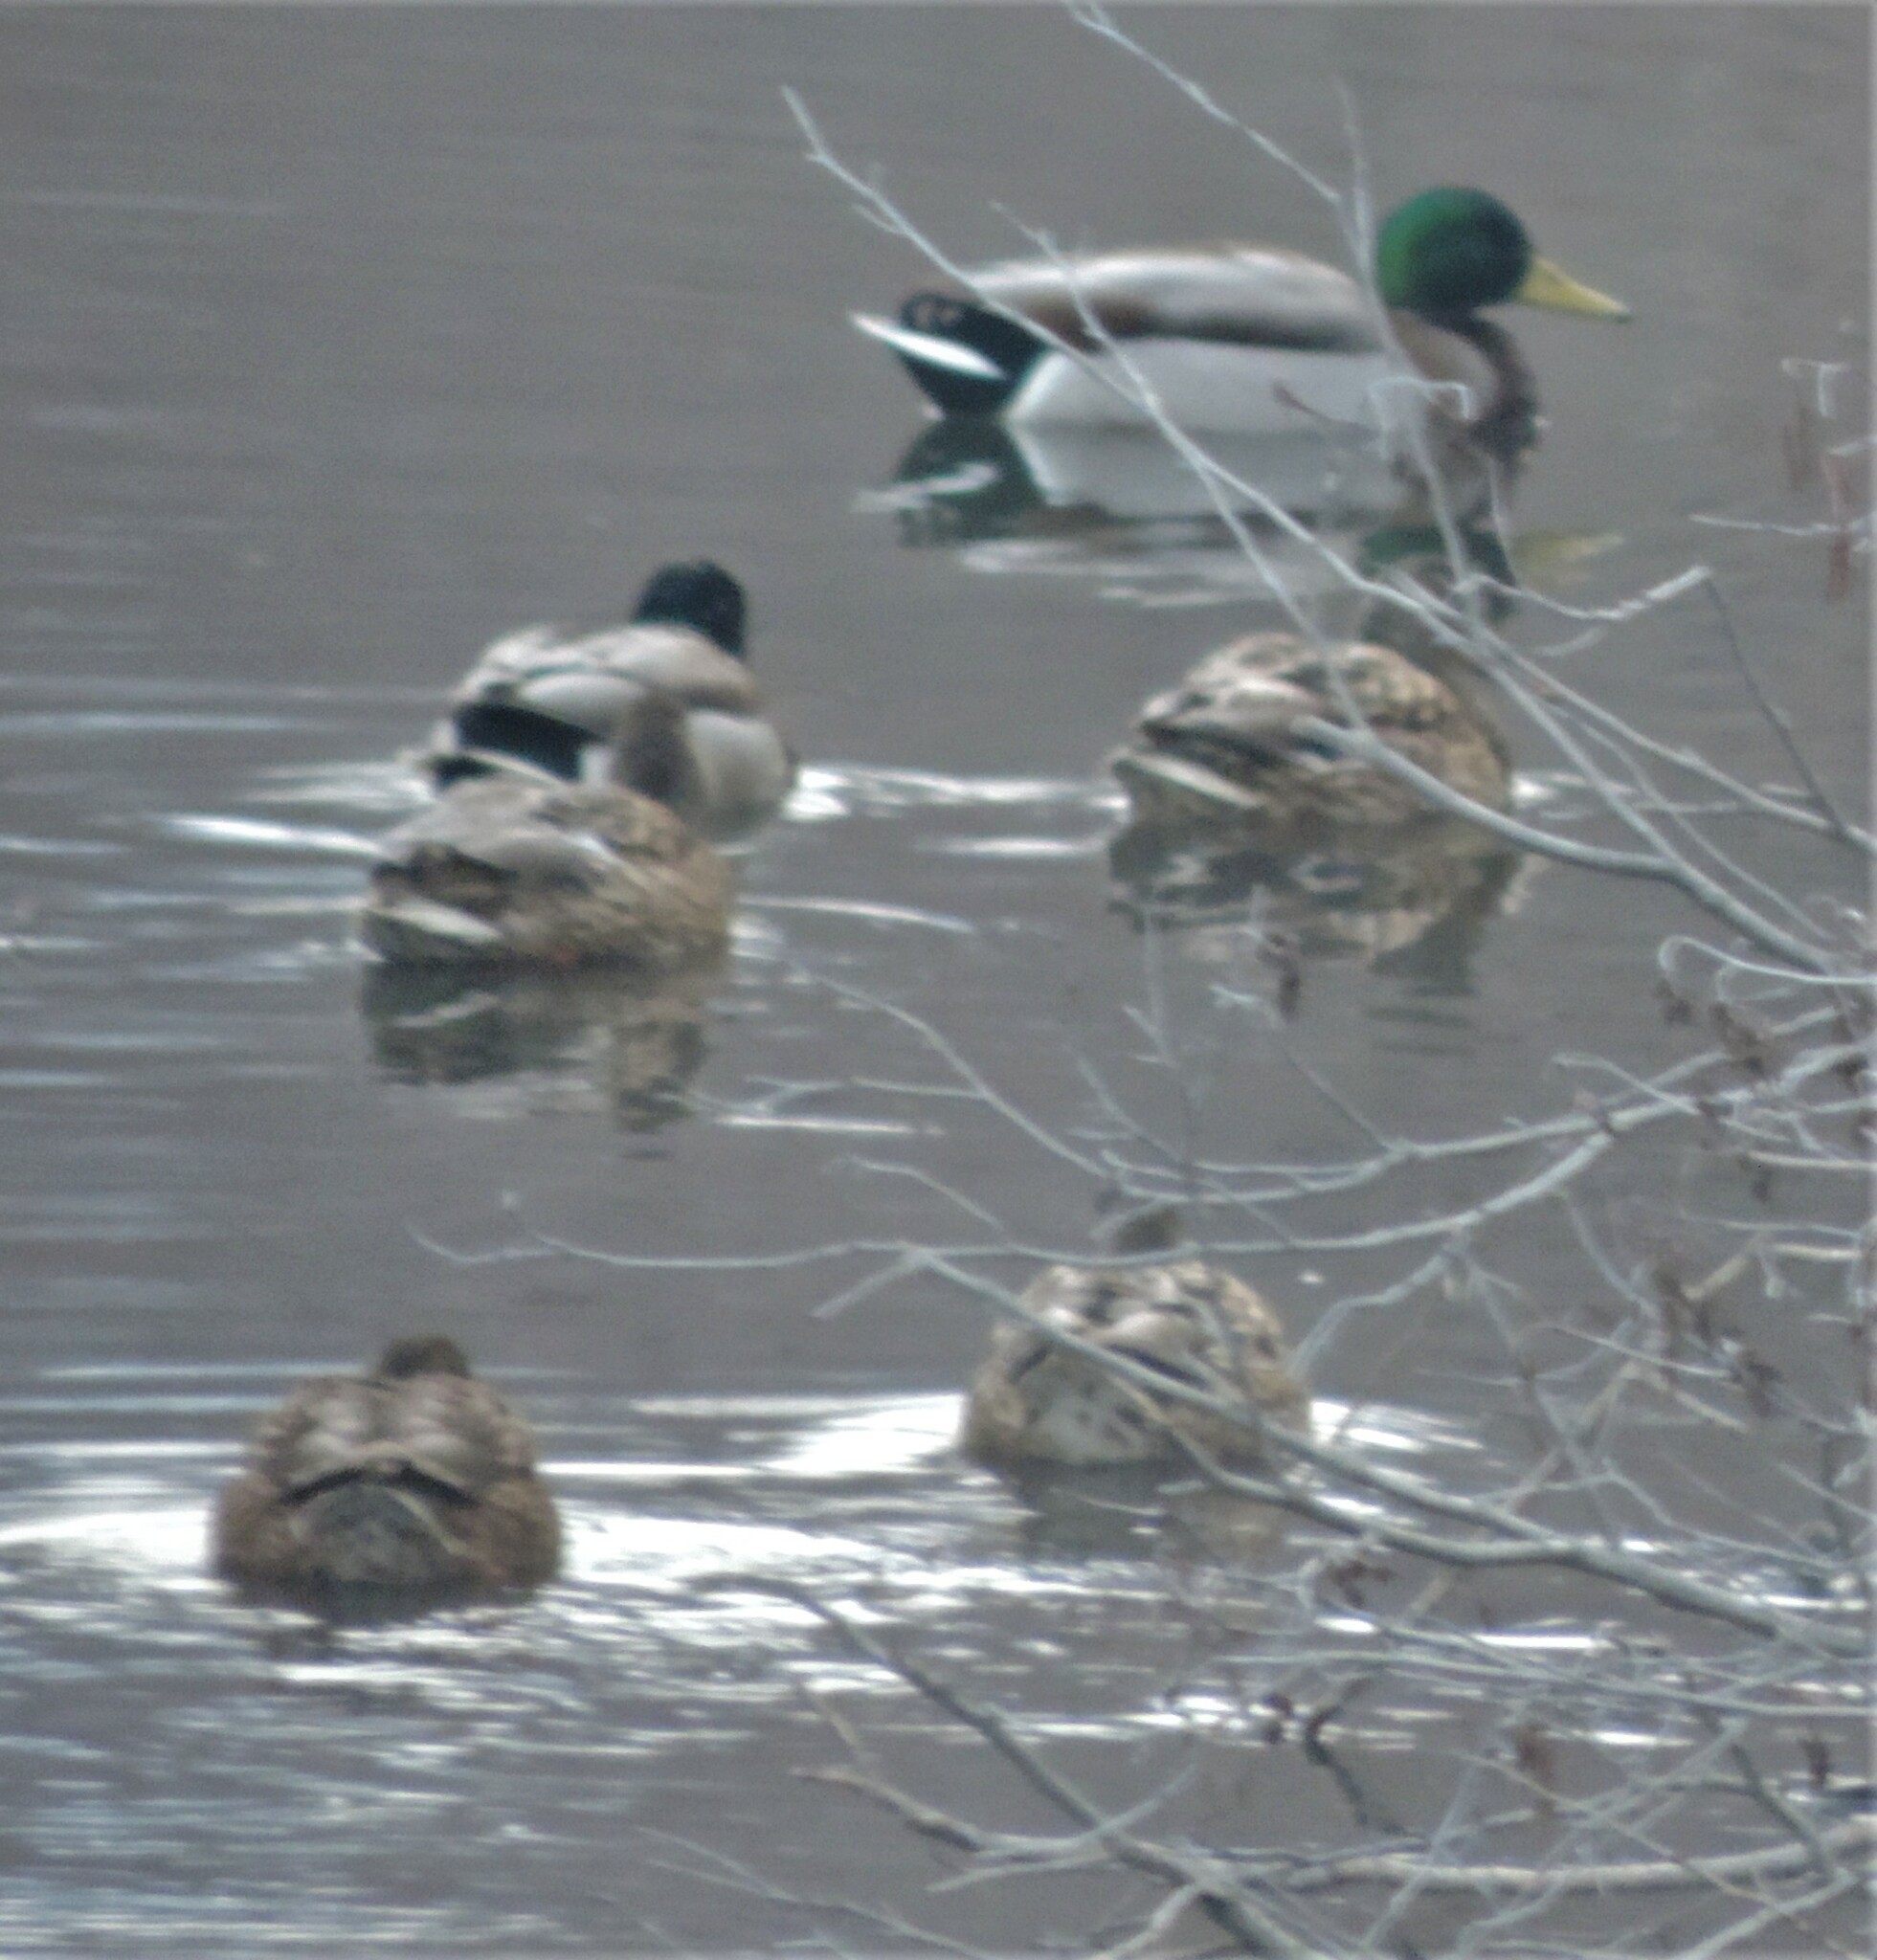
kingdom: Animalia
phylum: Chordata
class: Aves
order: Anseriformes
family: Anatidae
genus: Anas
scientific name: Anas platyrhynchos
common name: Mallard
